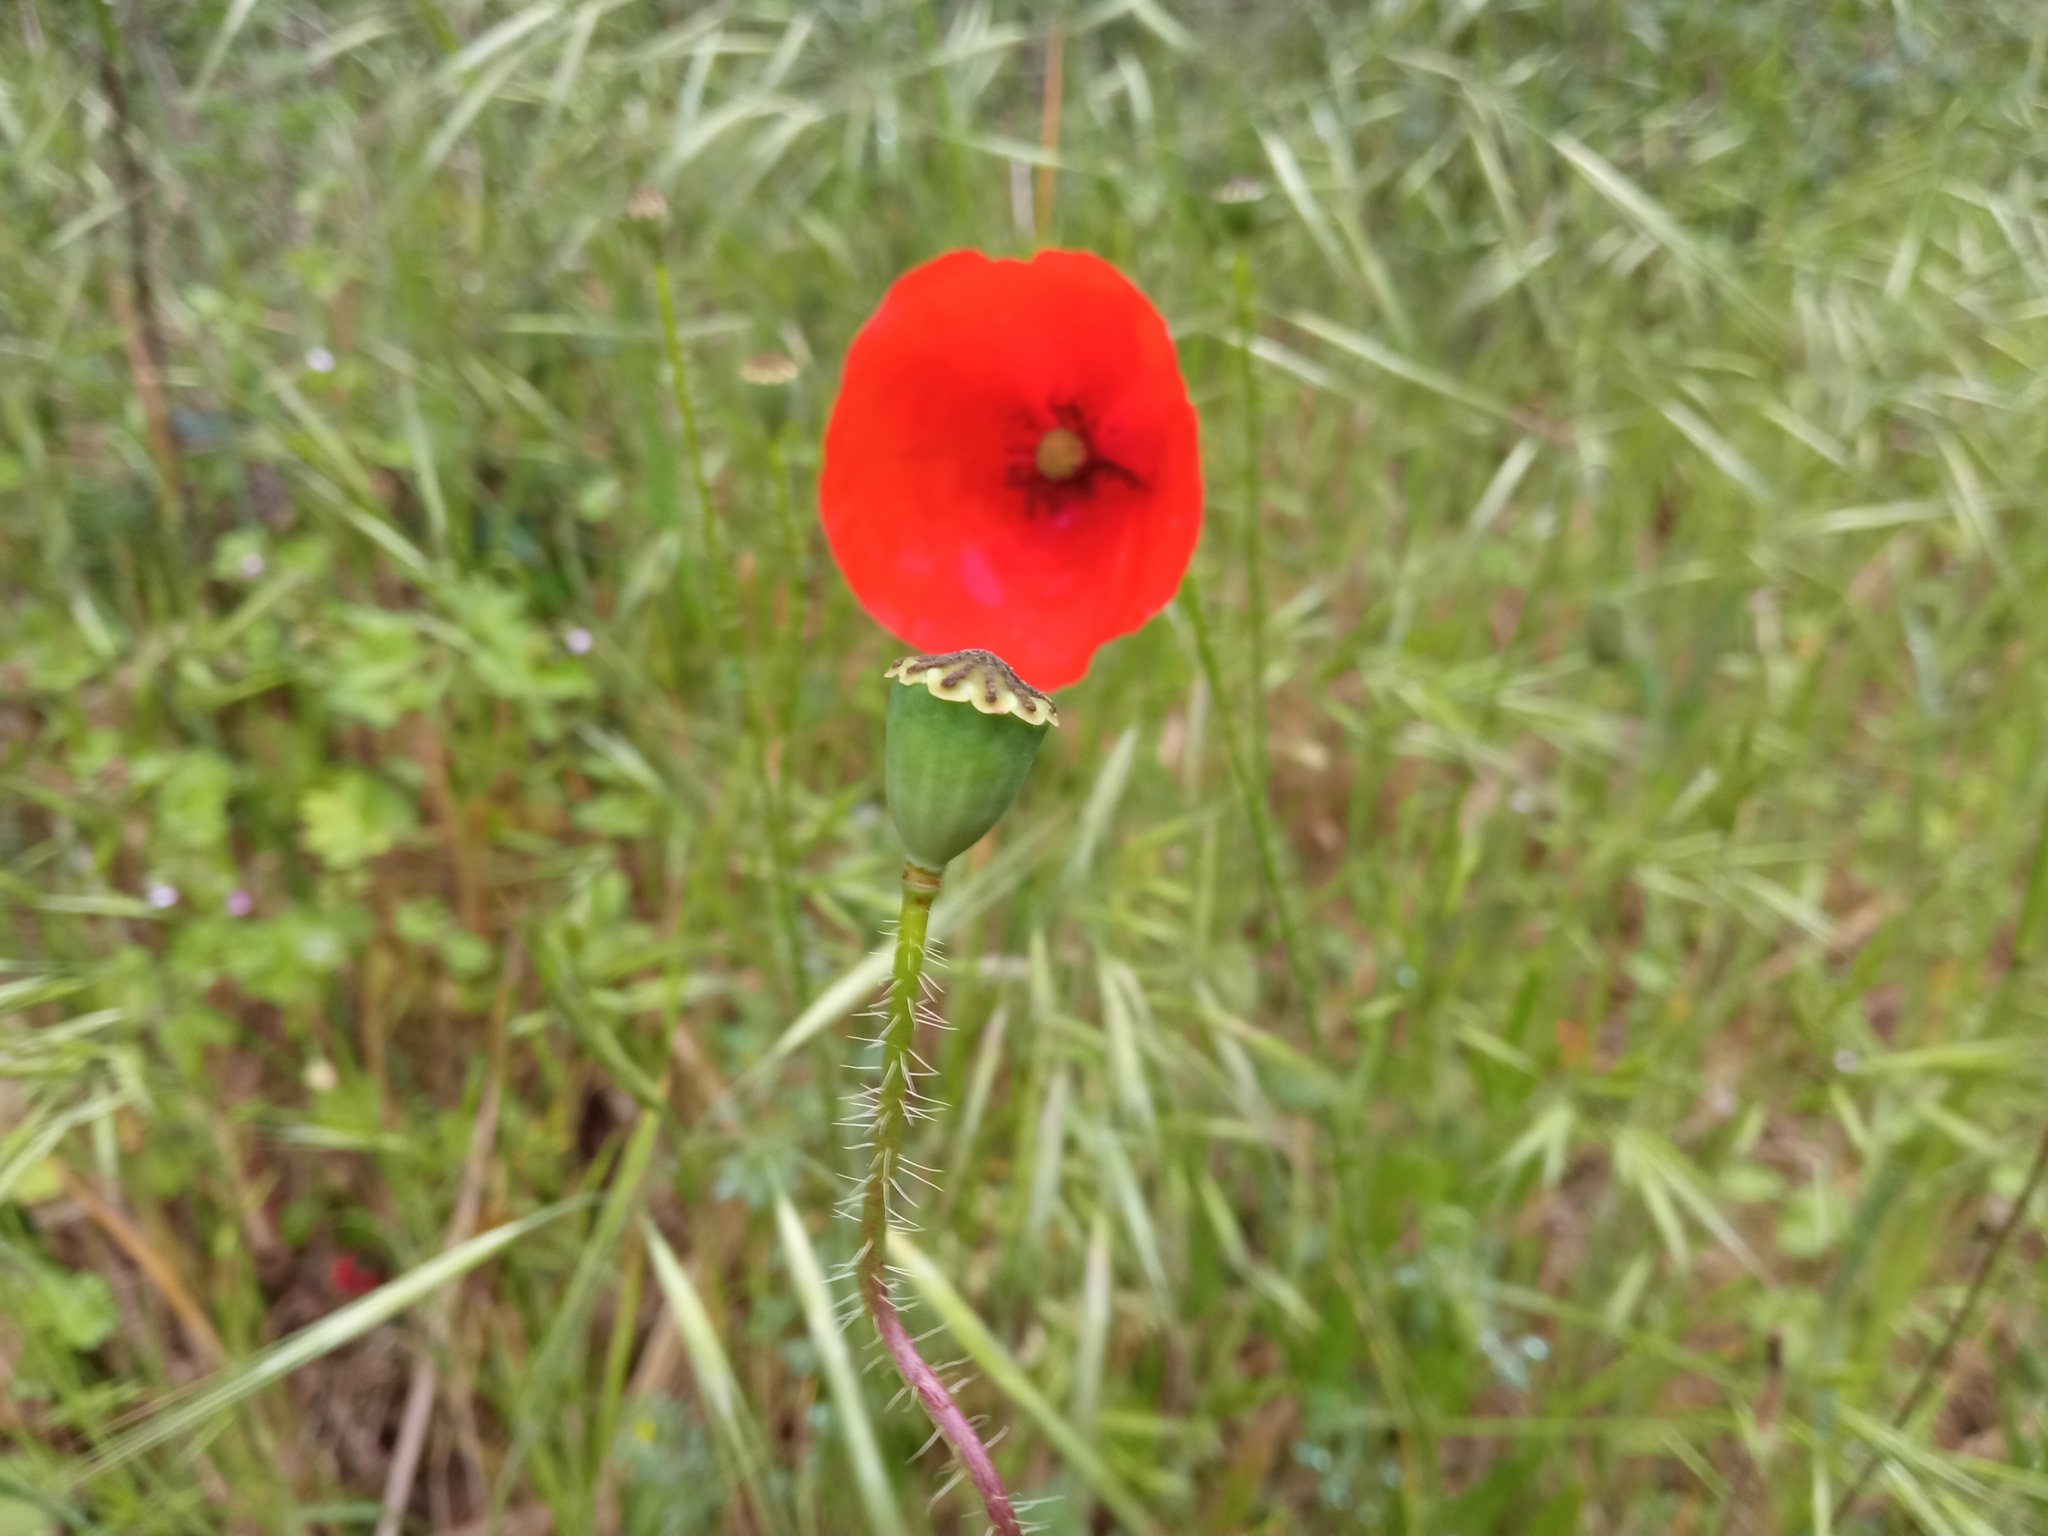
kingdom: Plantae
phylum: Tracheophyta
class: Magnoliopsida
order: Ranunculales
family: Papaveraceae
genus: Papaver
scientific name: Papaver rhoeas
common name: Corn poppy
